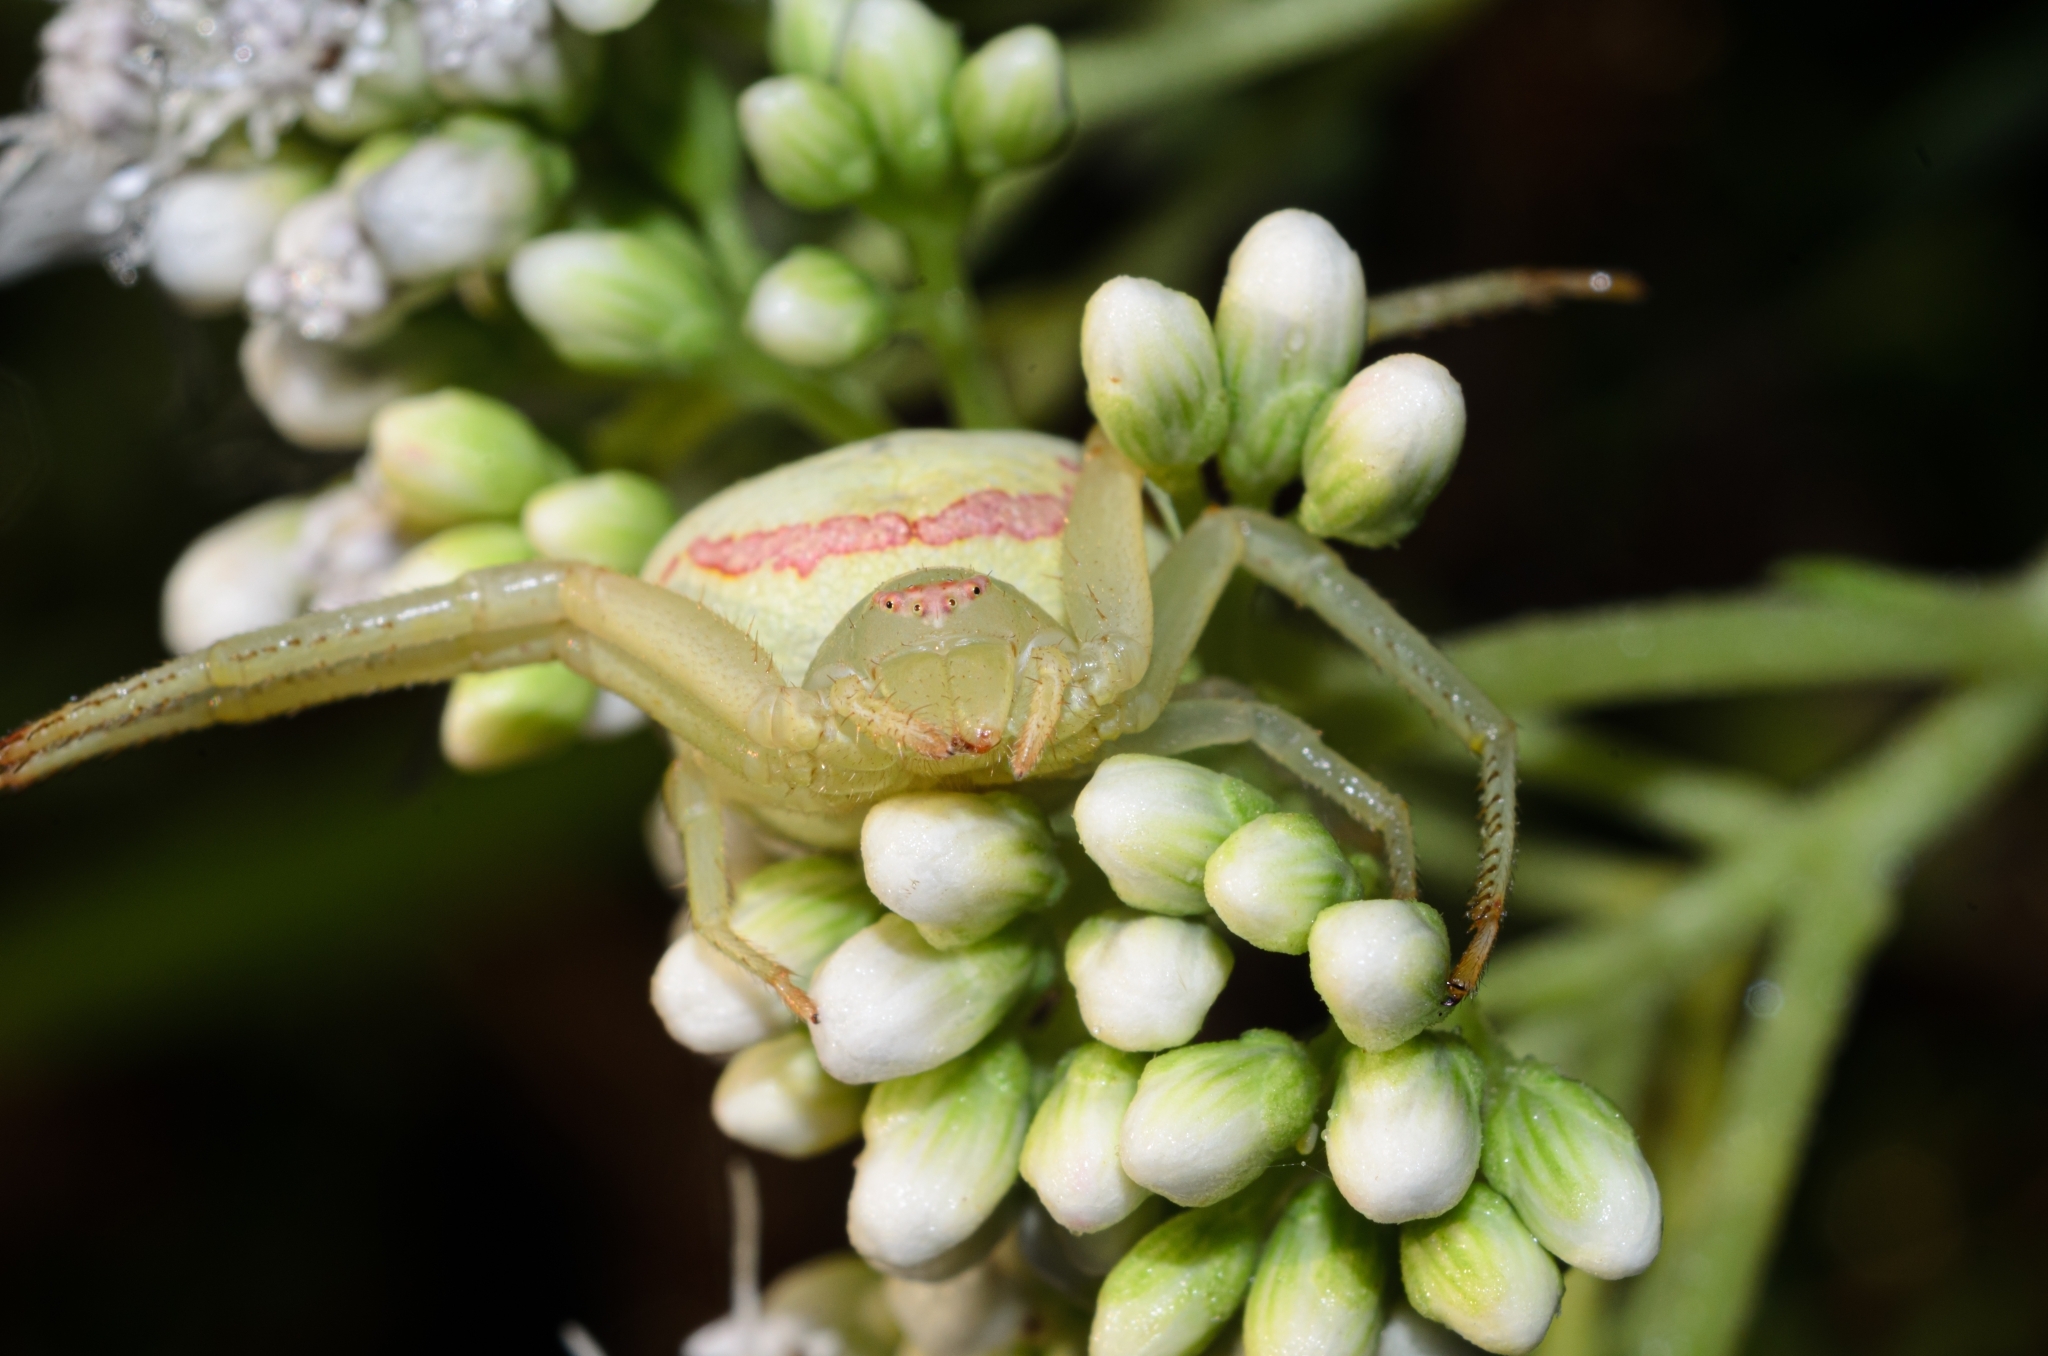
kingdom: Animalia
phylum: Arthropoda
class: Arachnida
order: Araneae
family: Thomisidae
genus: Misumenops
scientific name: Misumenops callinurus
